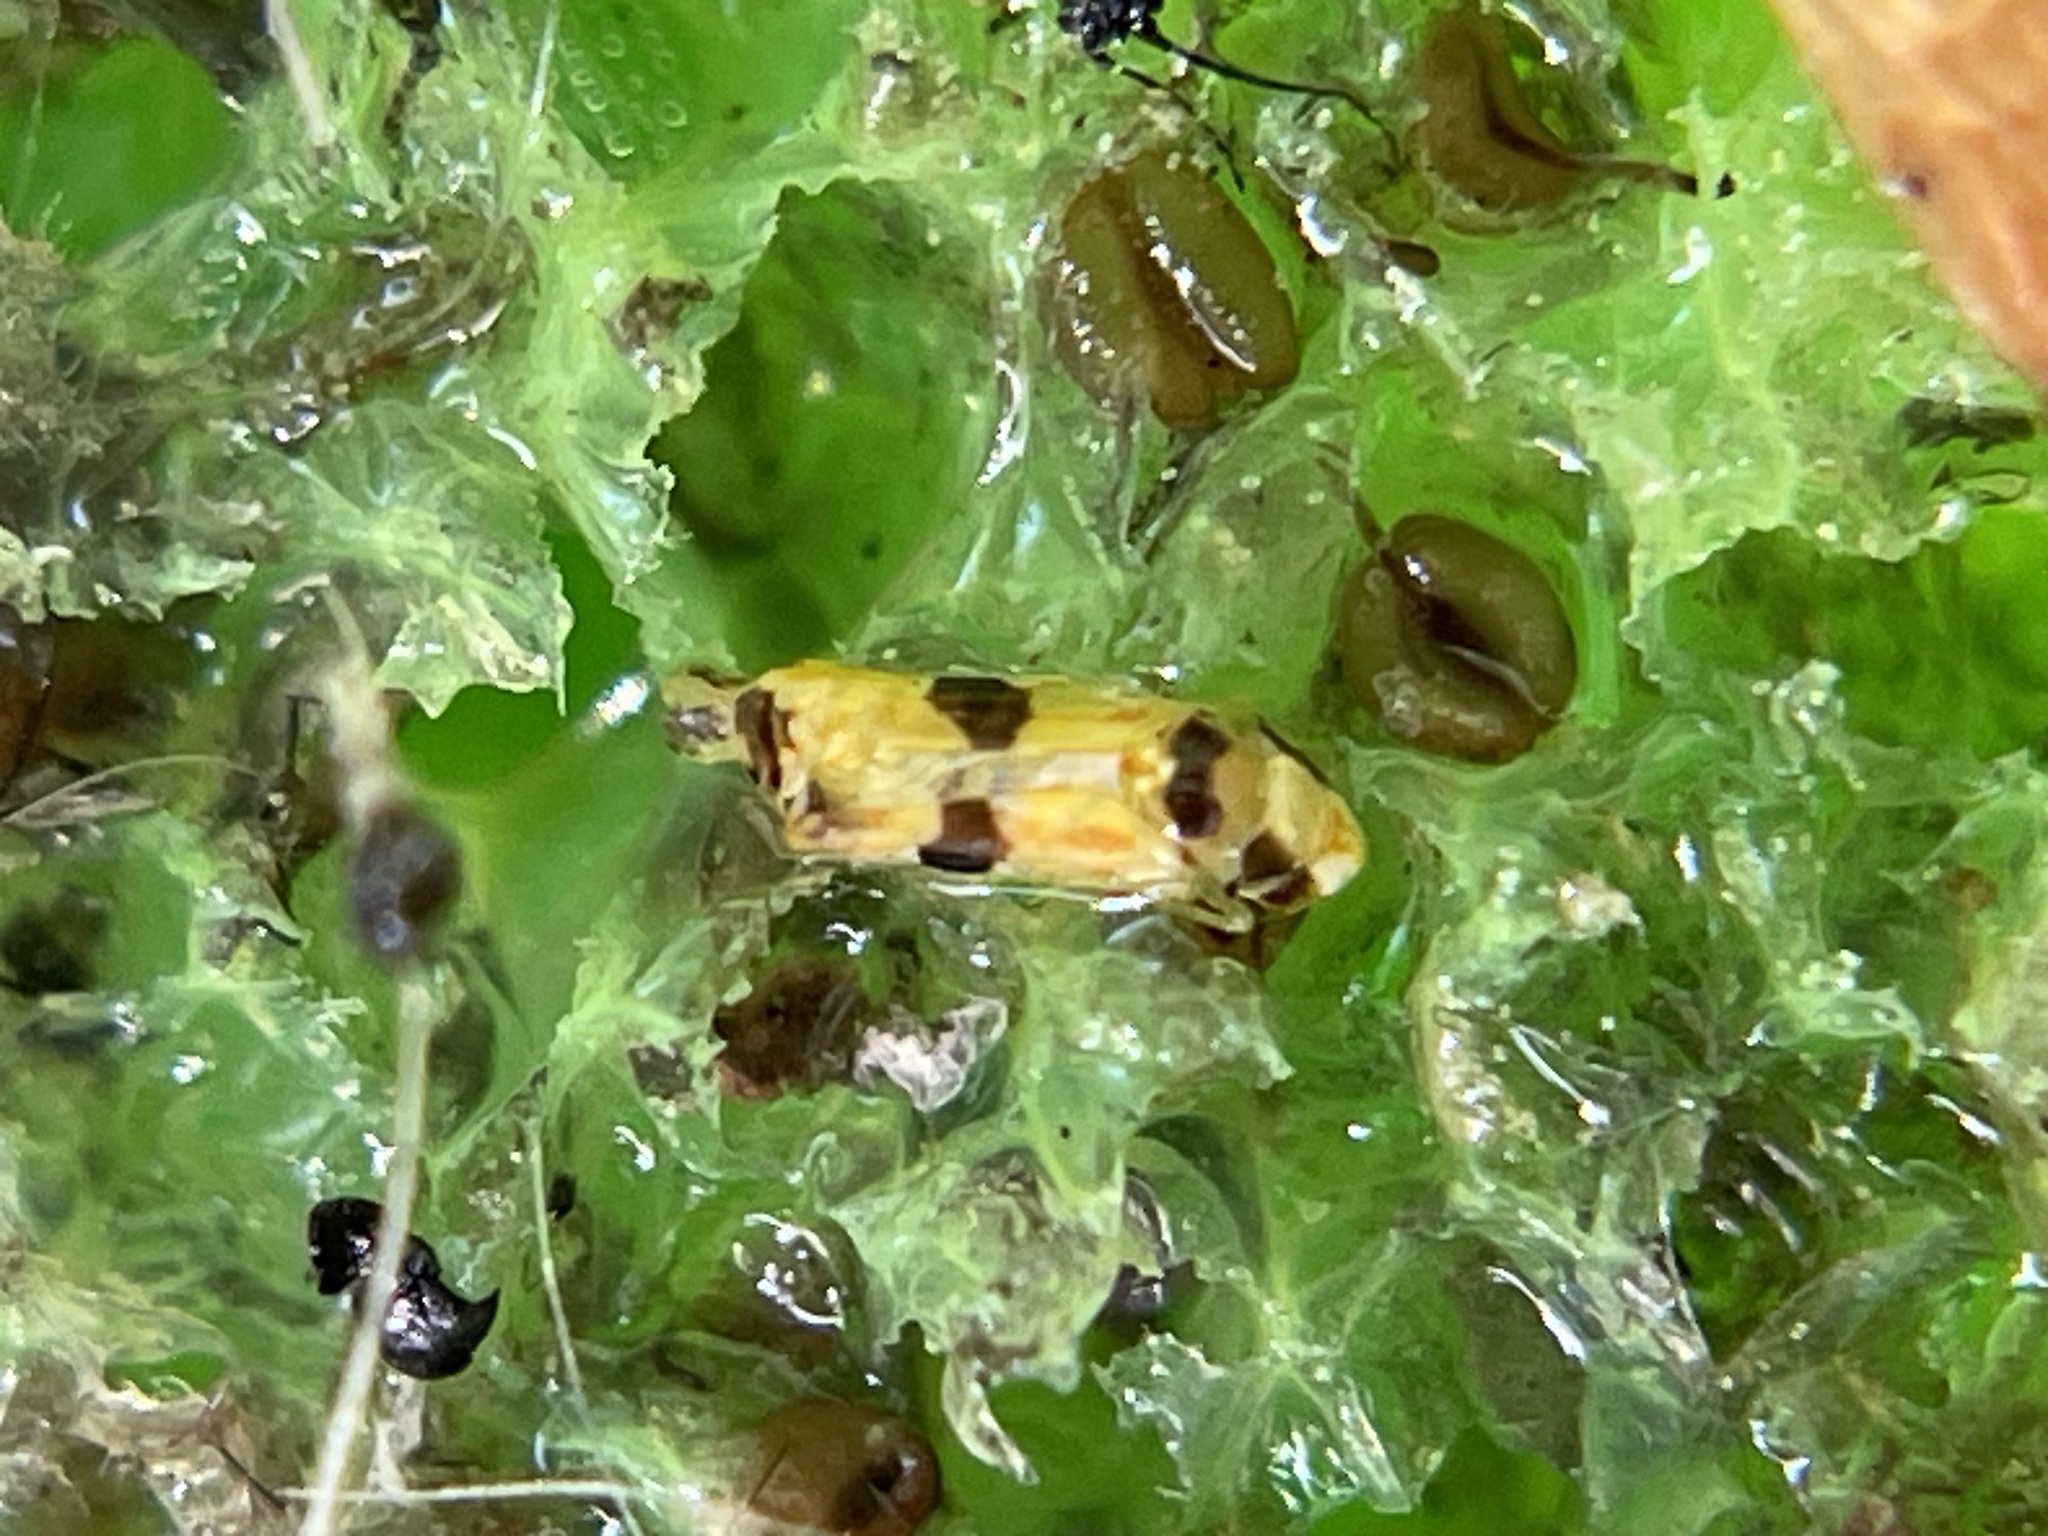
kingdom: Animalia
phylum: Arthropoda
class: Insecta
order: Hemiptera
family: Cicadellidae
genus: Erythroneura
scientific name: Erythroneura calycula
